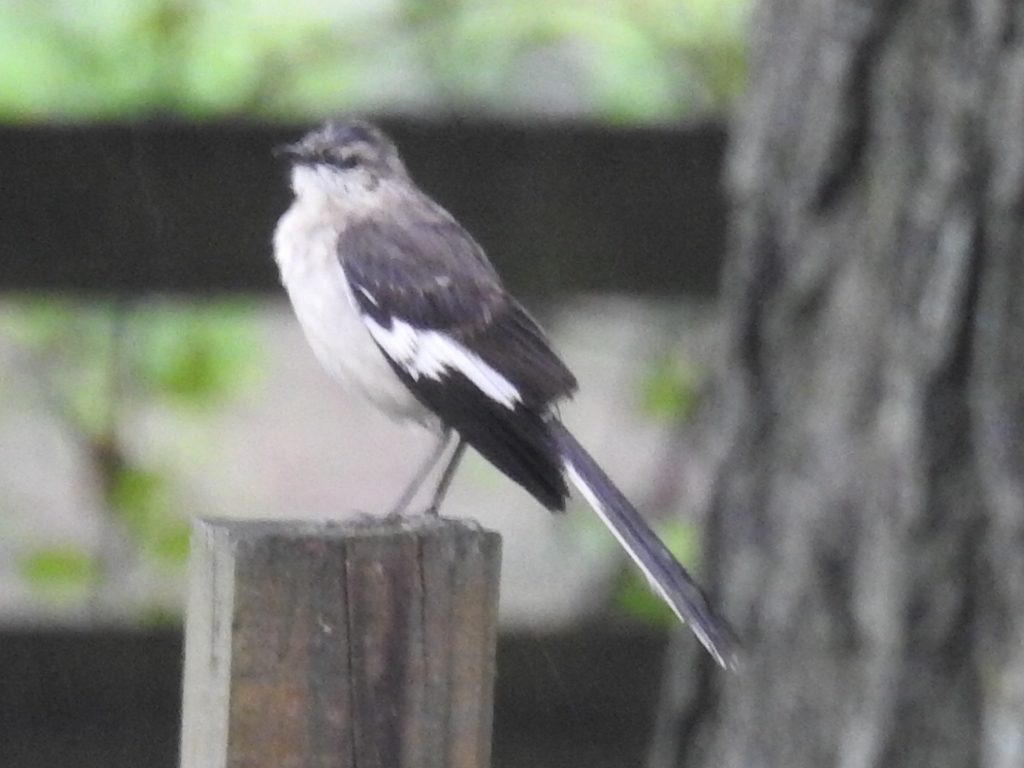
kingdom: Animalia
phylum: Chordata
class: Aves
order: Passeriformes
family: Mimidae
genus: Mimus
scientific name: Mimus polyglottos
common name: Northern mockingbird
